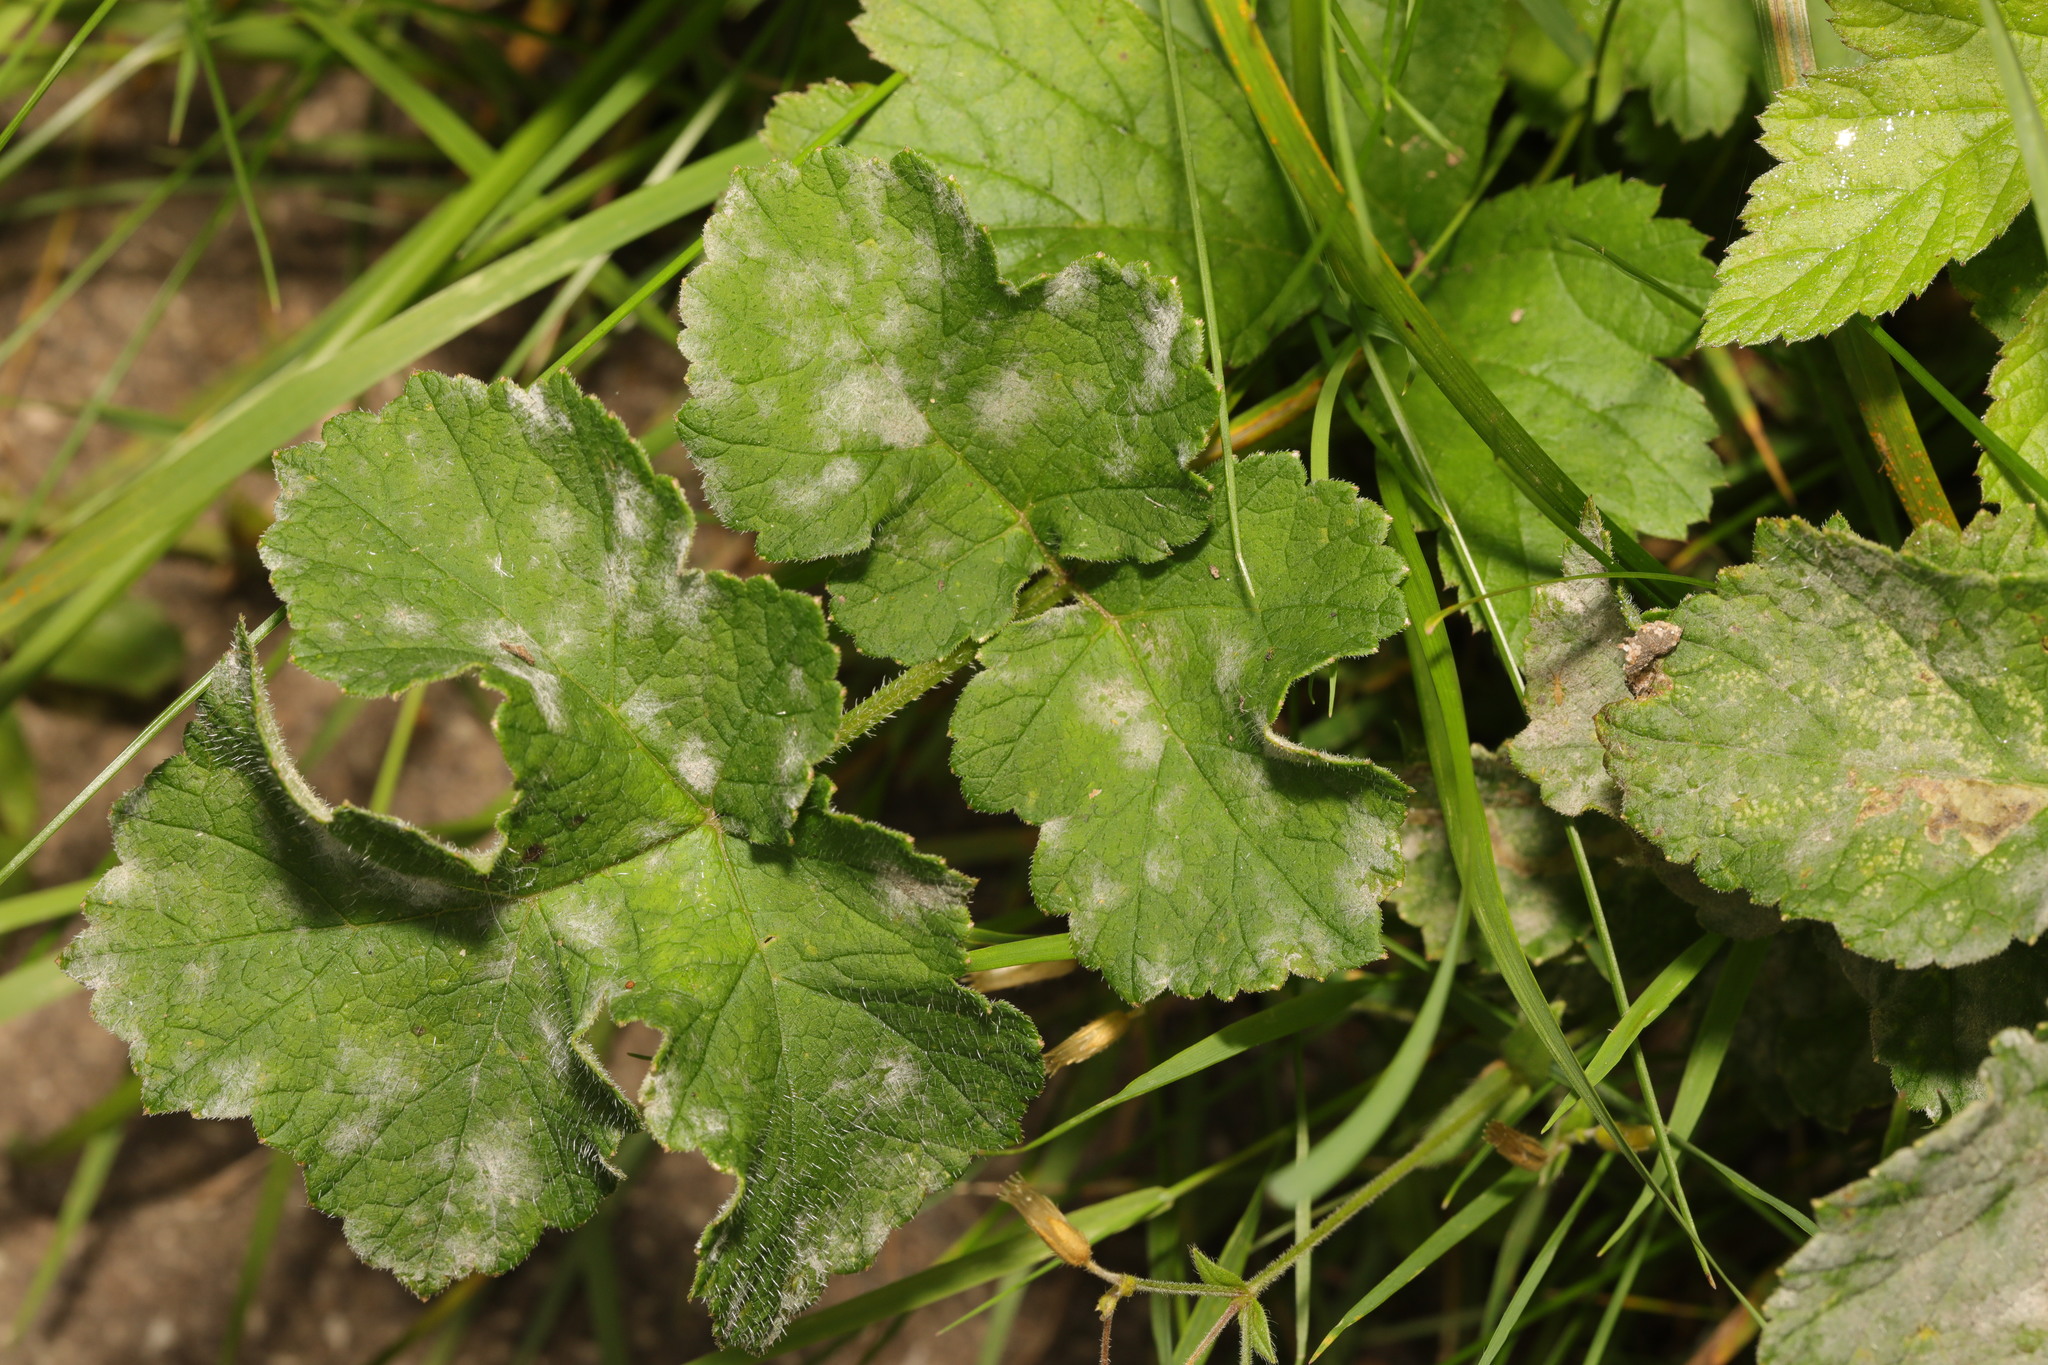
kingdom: Plantae
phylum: Tracheophyta
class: Magnoliopsida
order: Apiales
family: Apiaceae
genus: Heracleum
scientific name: Heracleum sphondylium
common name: Hogweed
